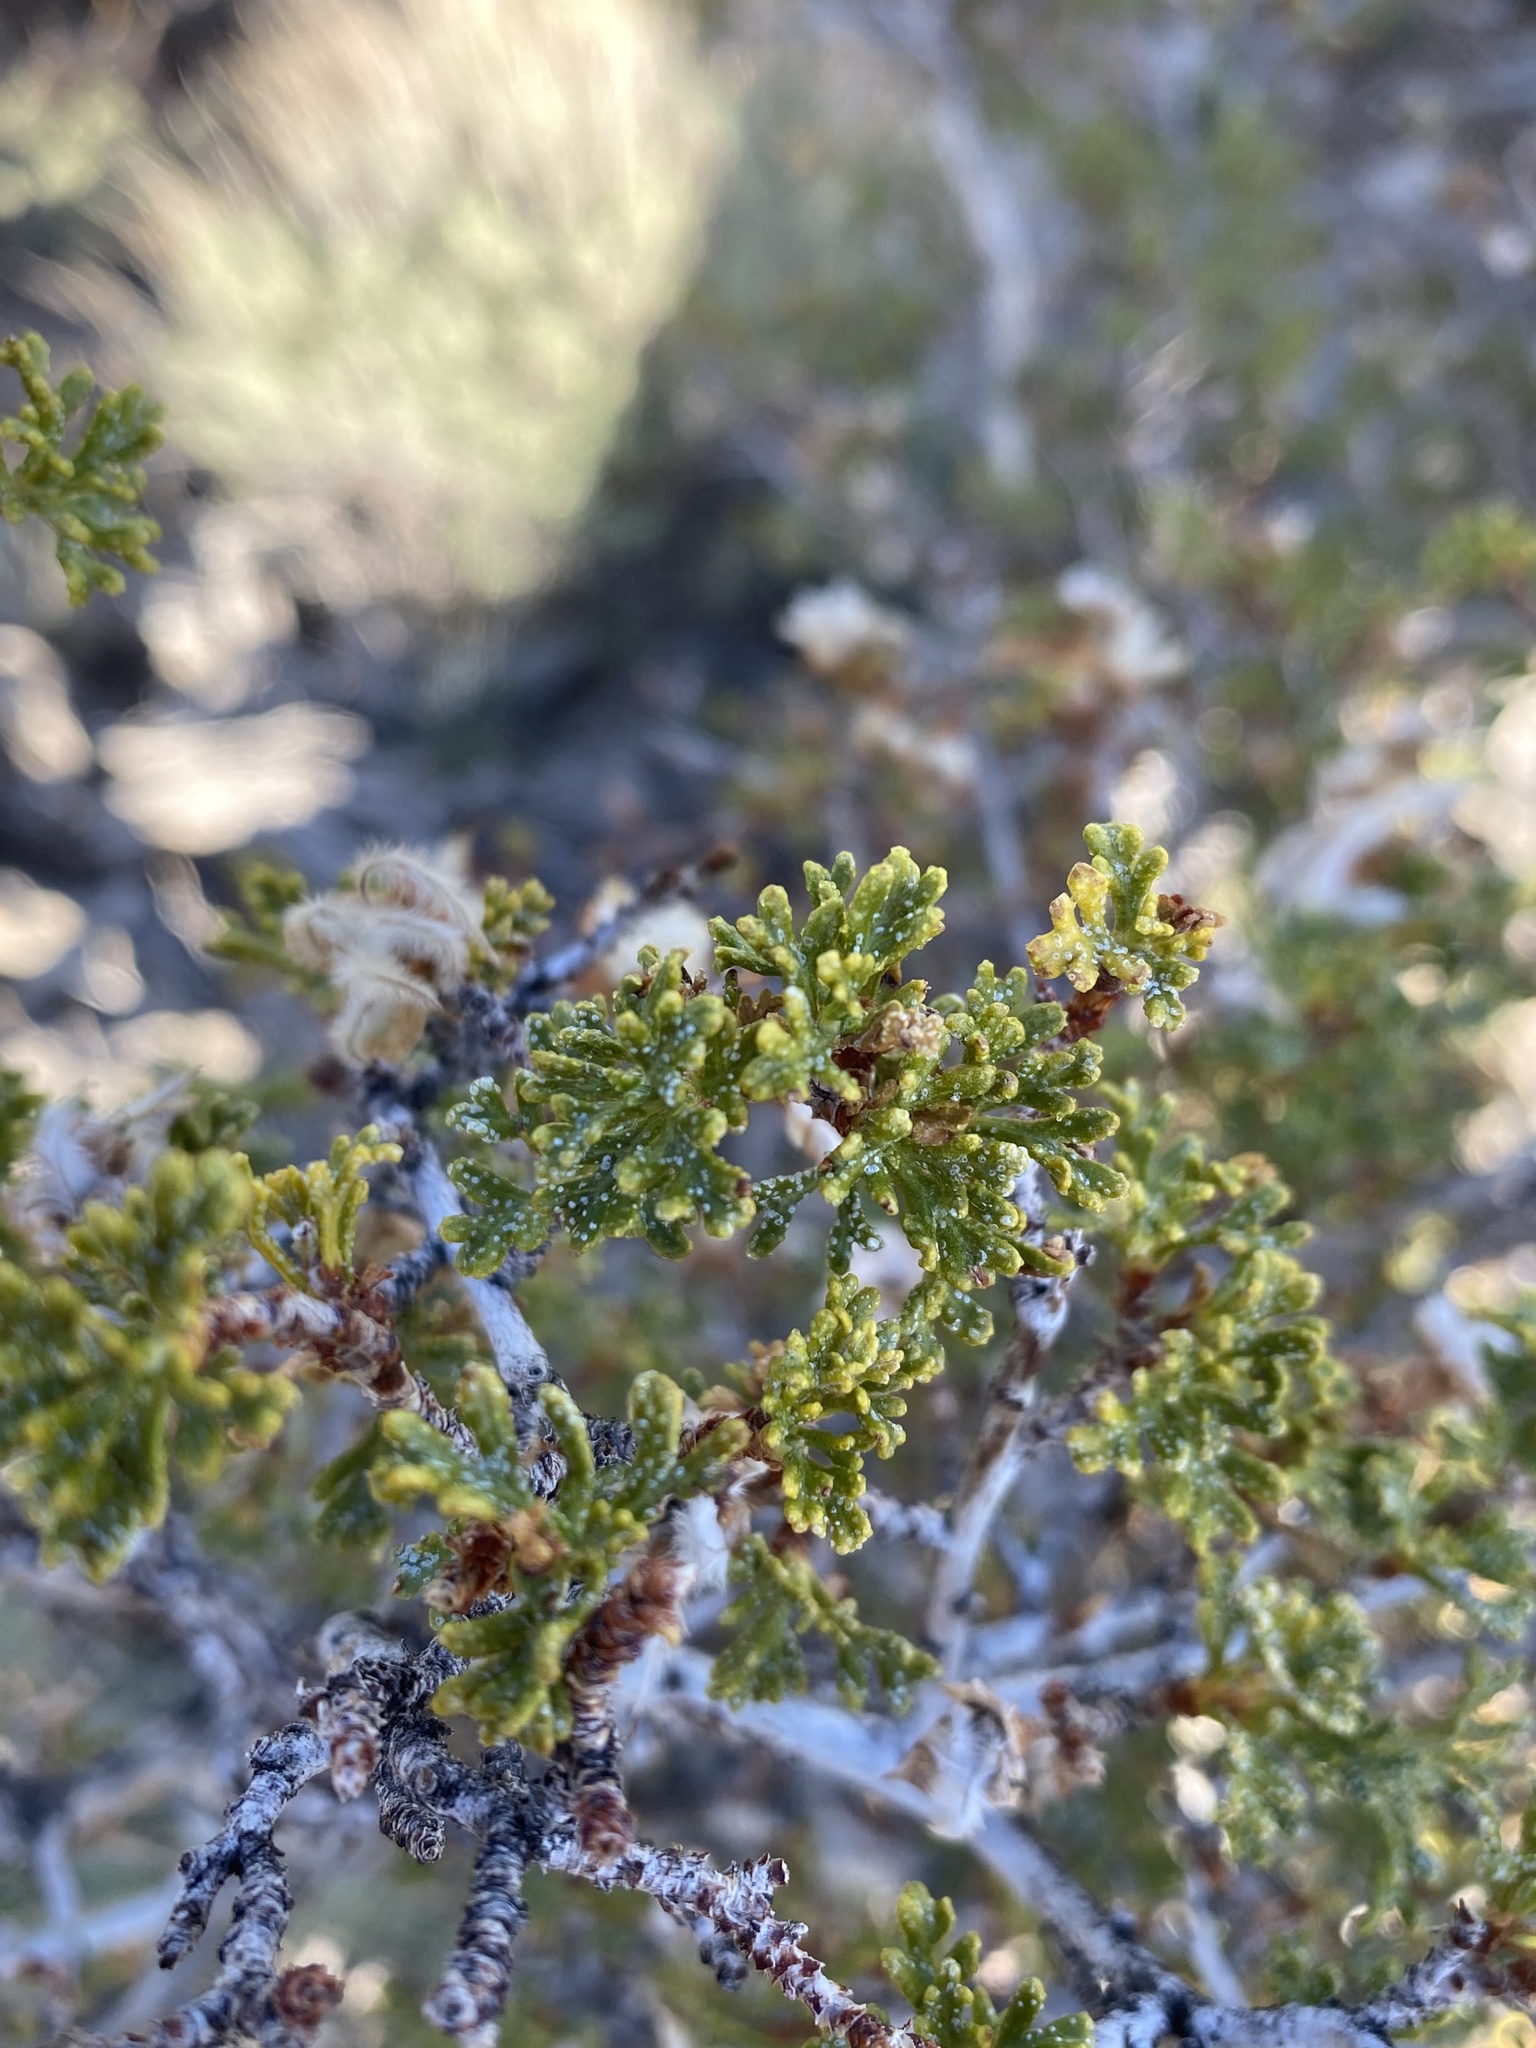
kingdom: Plantae
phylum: Tracheophyta
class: Magnoliopsida
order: Rosales
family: Rosaceae
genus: Purshia
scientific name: Purshia stansburiana
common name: Stansbury's cliffrose
